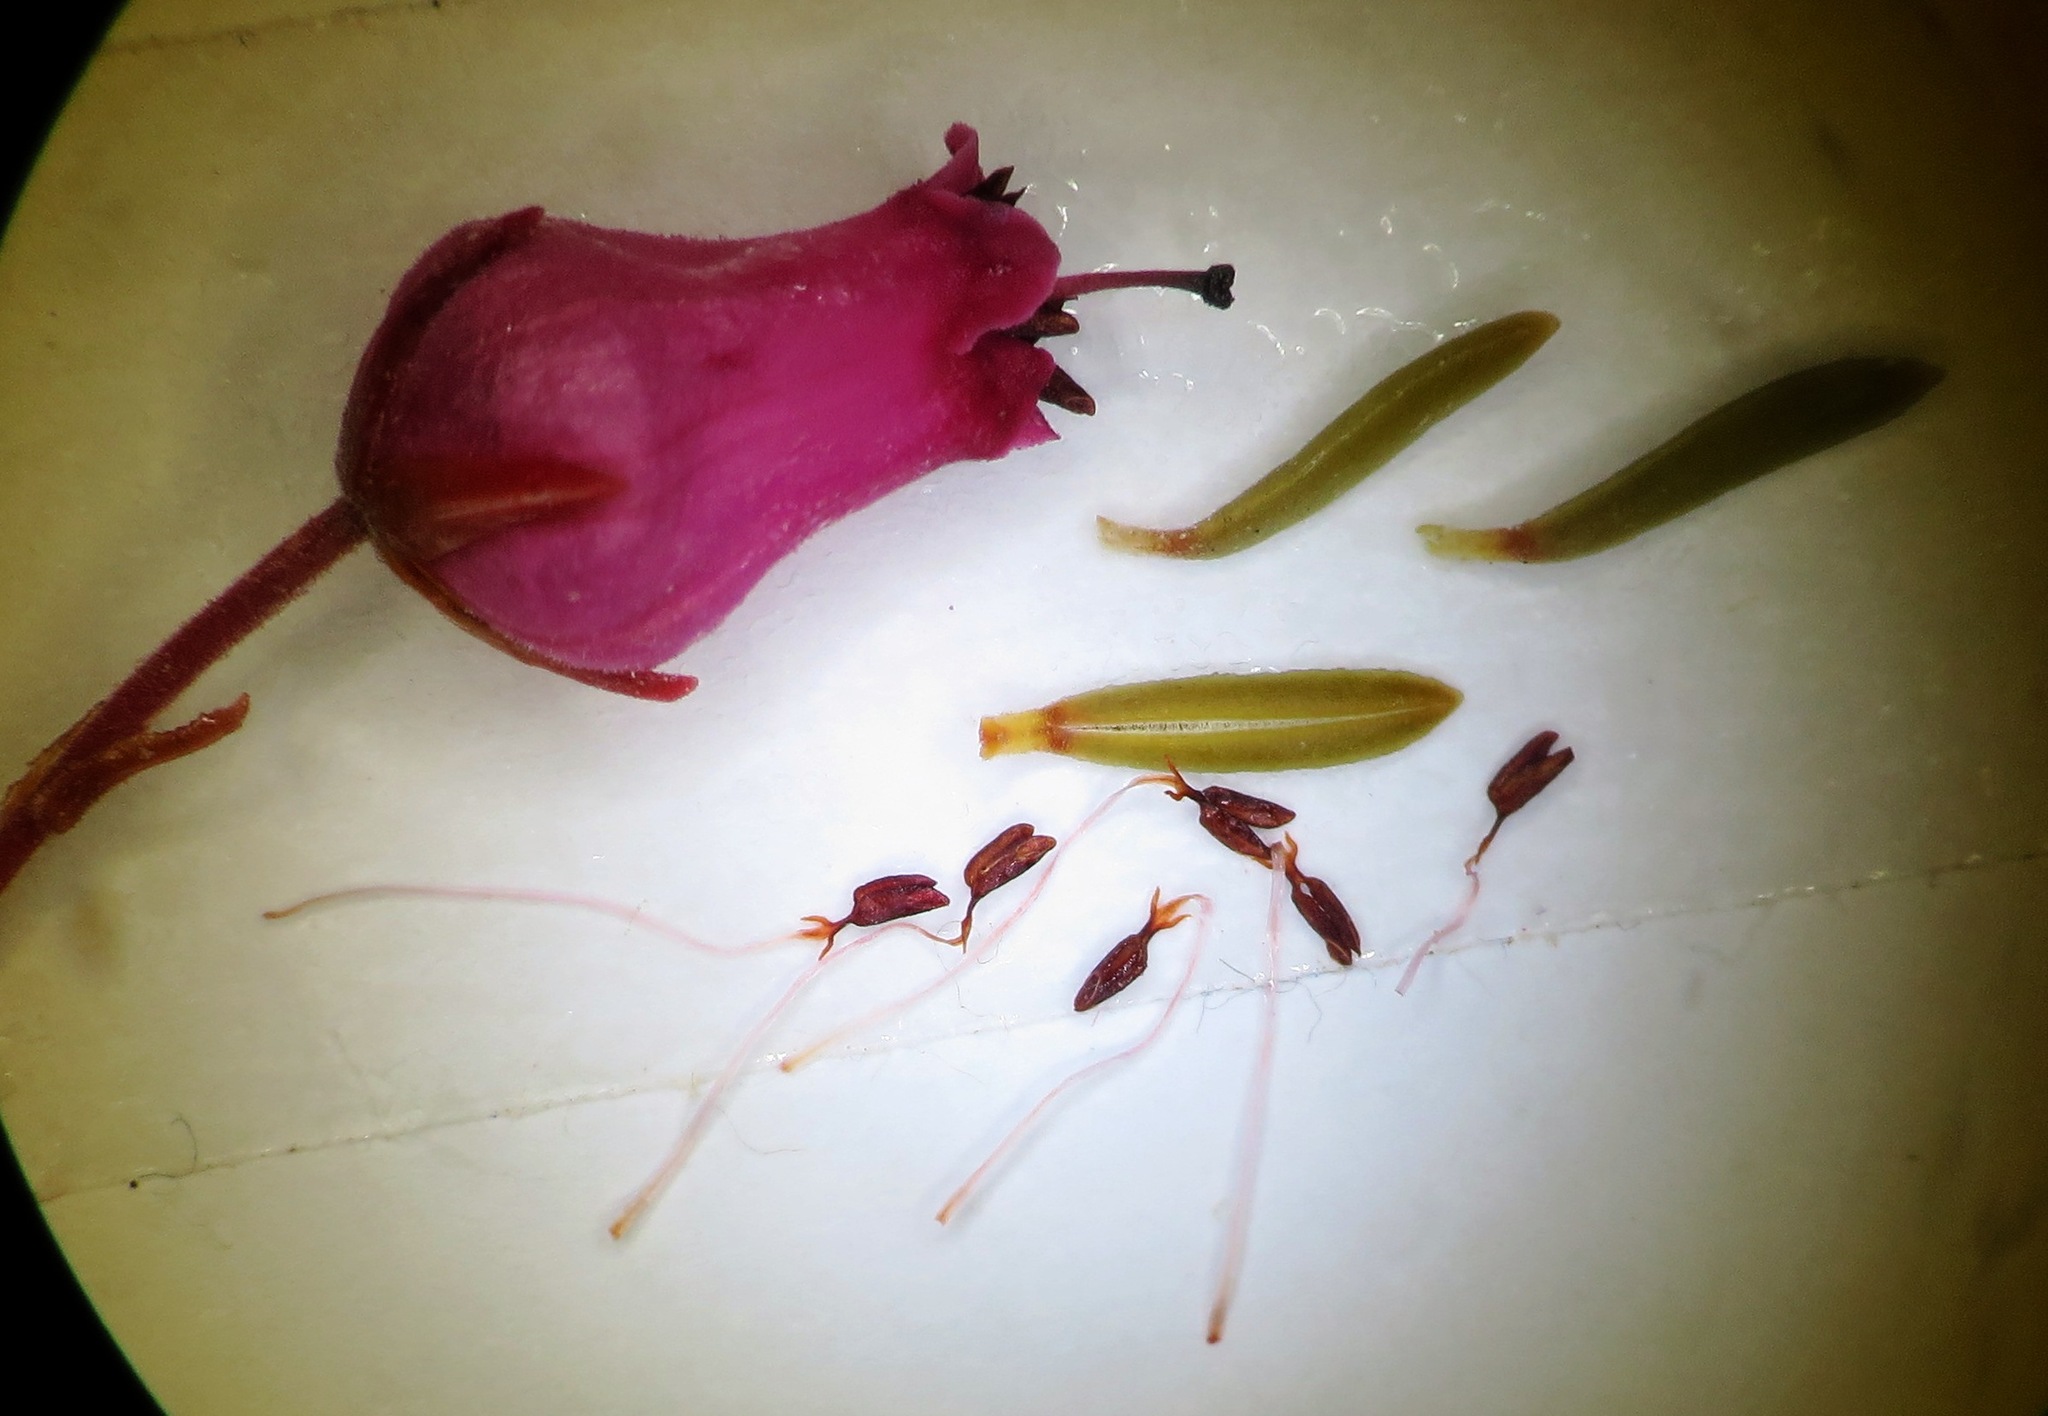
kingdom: Plantae
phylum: Tracheophyta
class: Magnoliopsida
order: Ericales
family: Ericaceae
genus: Erica
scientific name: Erica insolitanthera
